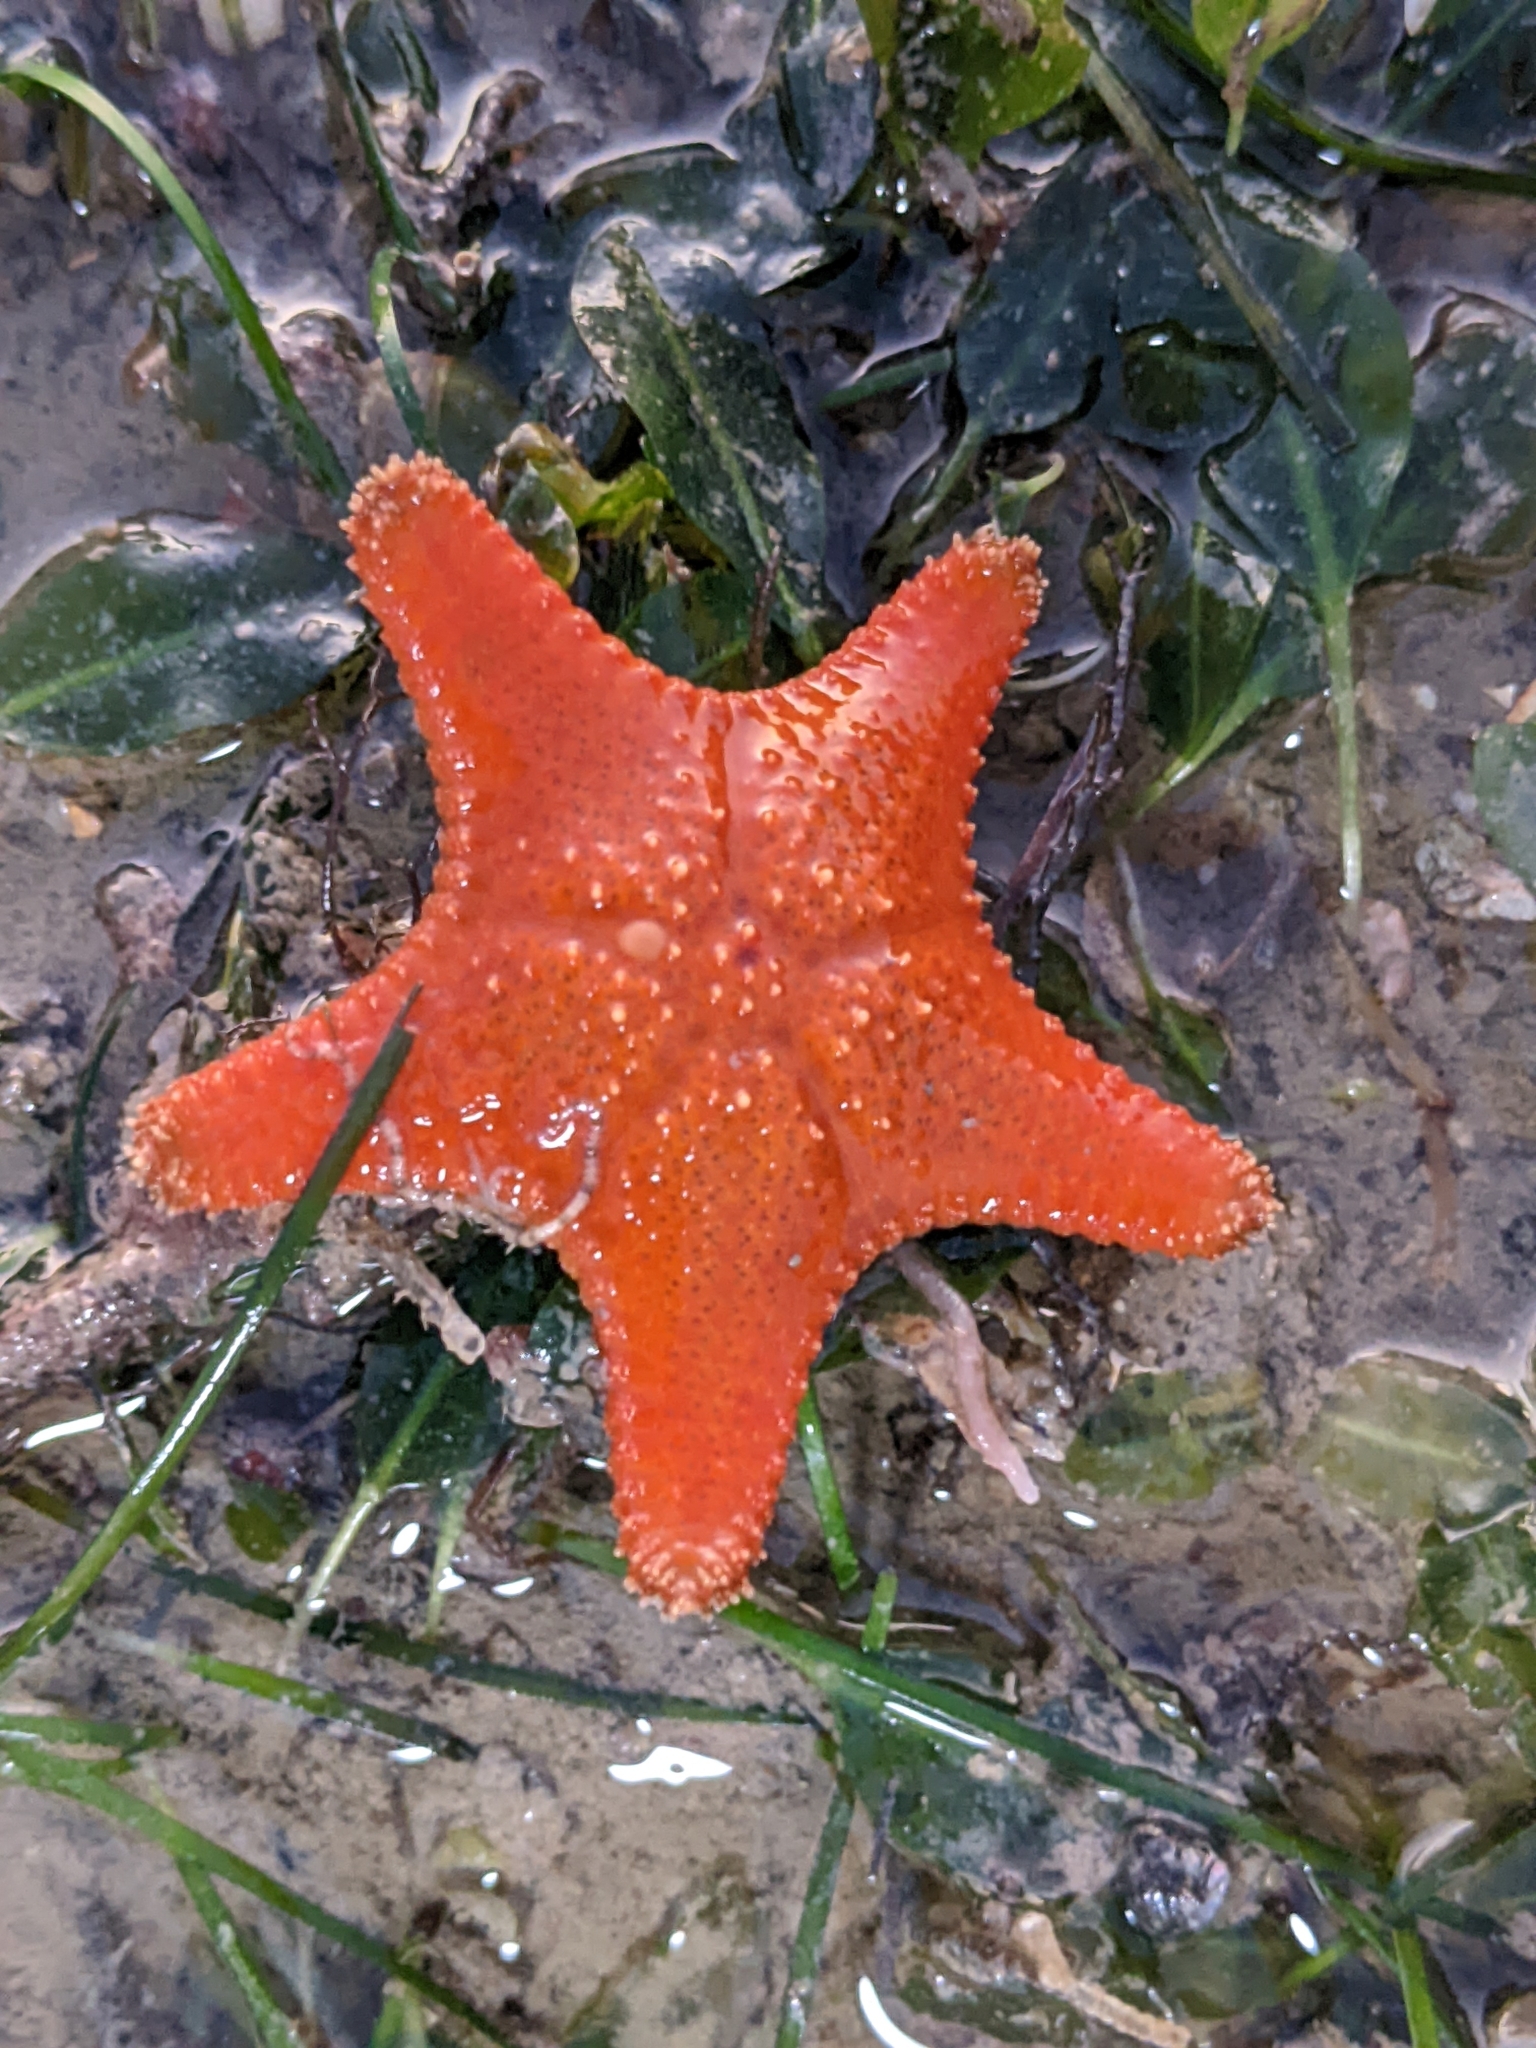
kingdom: Animalia
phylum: Echinodermata
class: Asteroidea
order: Valvatida
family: Oreasteridae
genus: Anthenea
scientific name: Anthenea aspera
